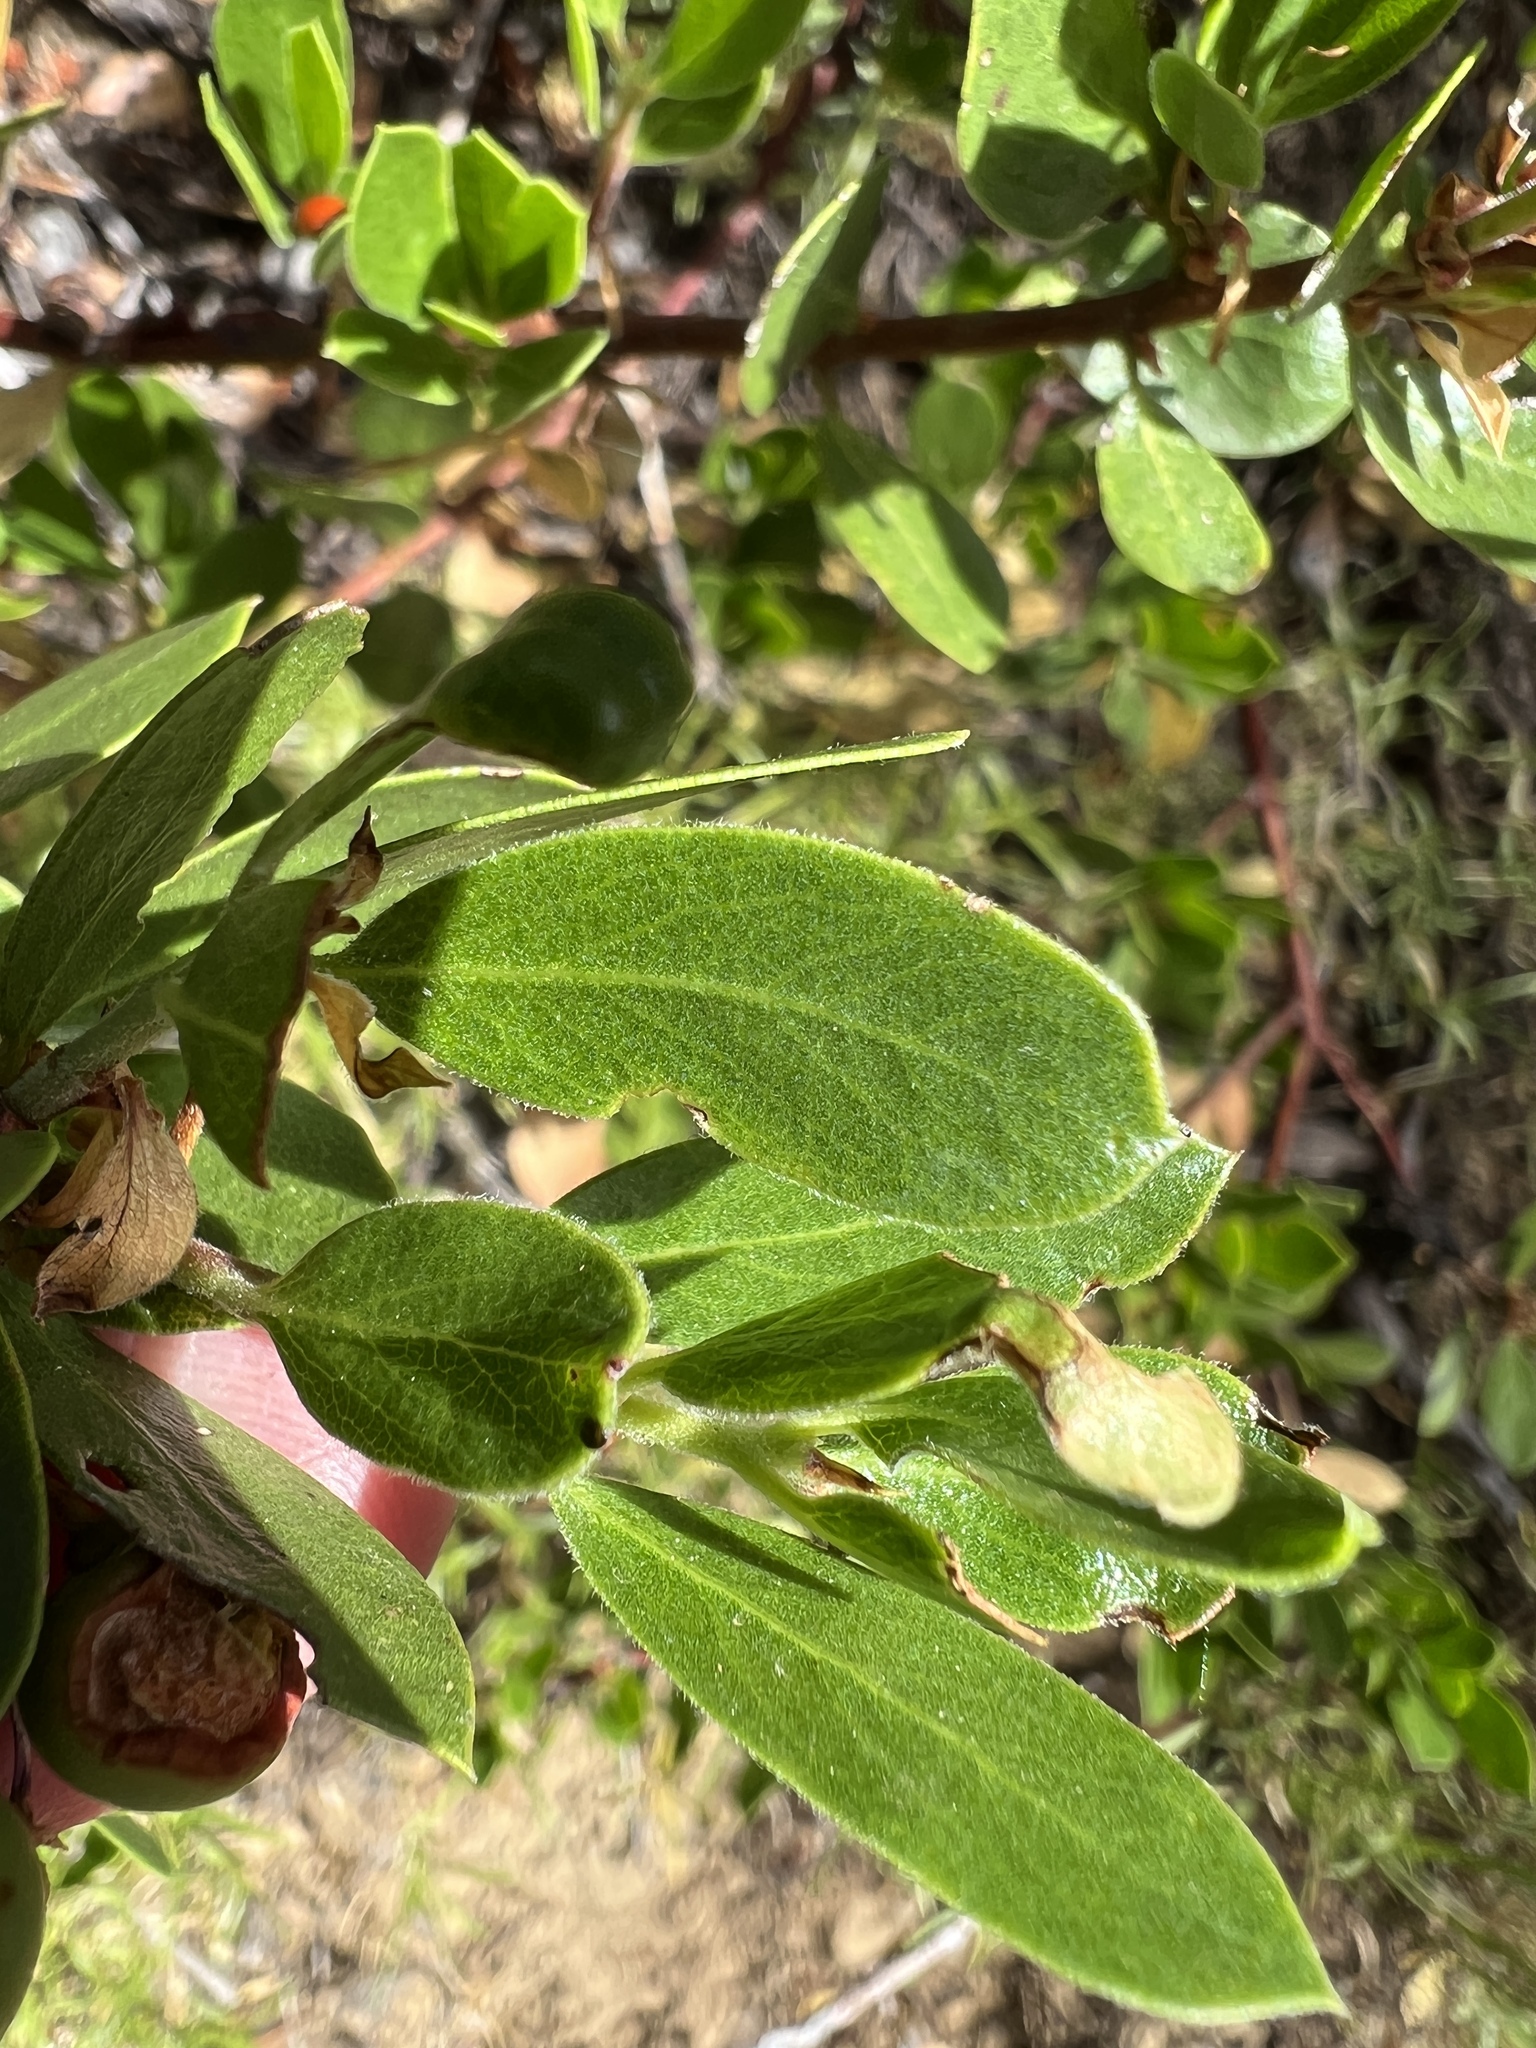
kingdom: Plantae
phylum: Tracheophyta
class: Magnoliopsida
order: Ericales
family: Ericaceae
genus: Arctostaphylos
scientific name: Arctostaphylos nevadensis
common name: Pinemat manzanita
